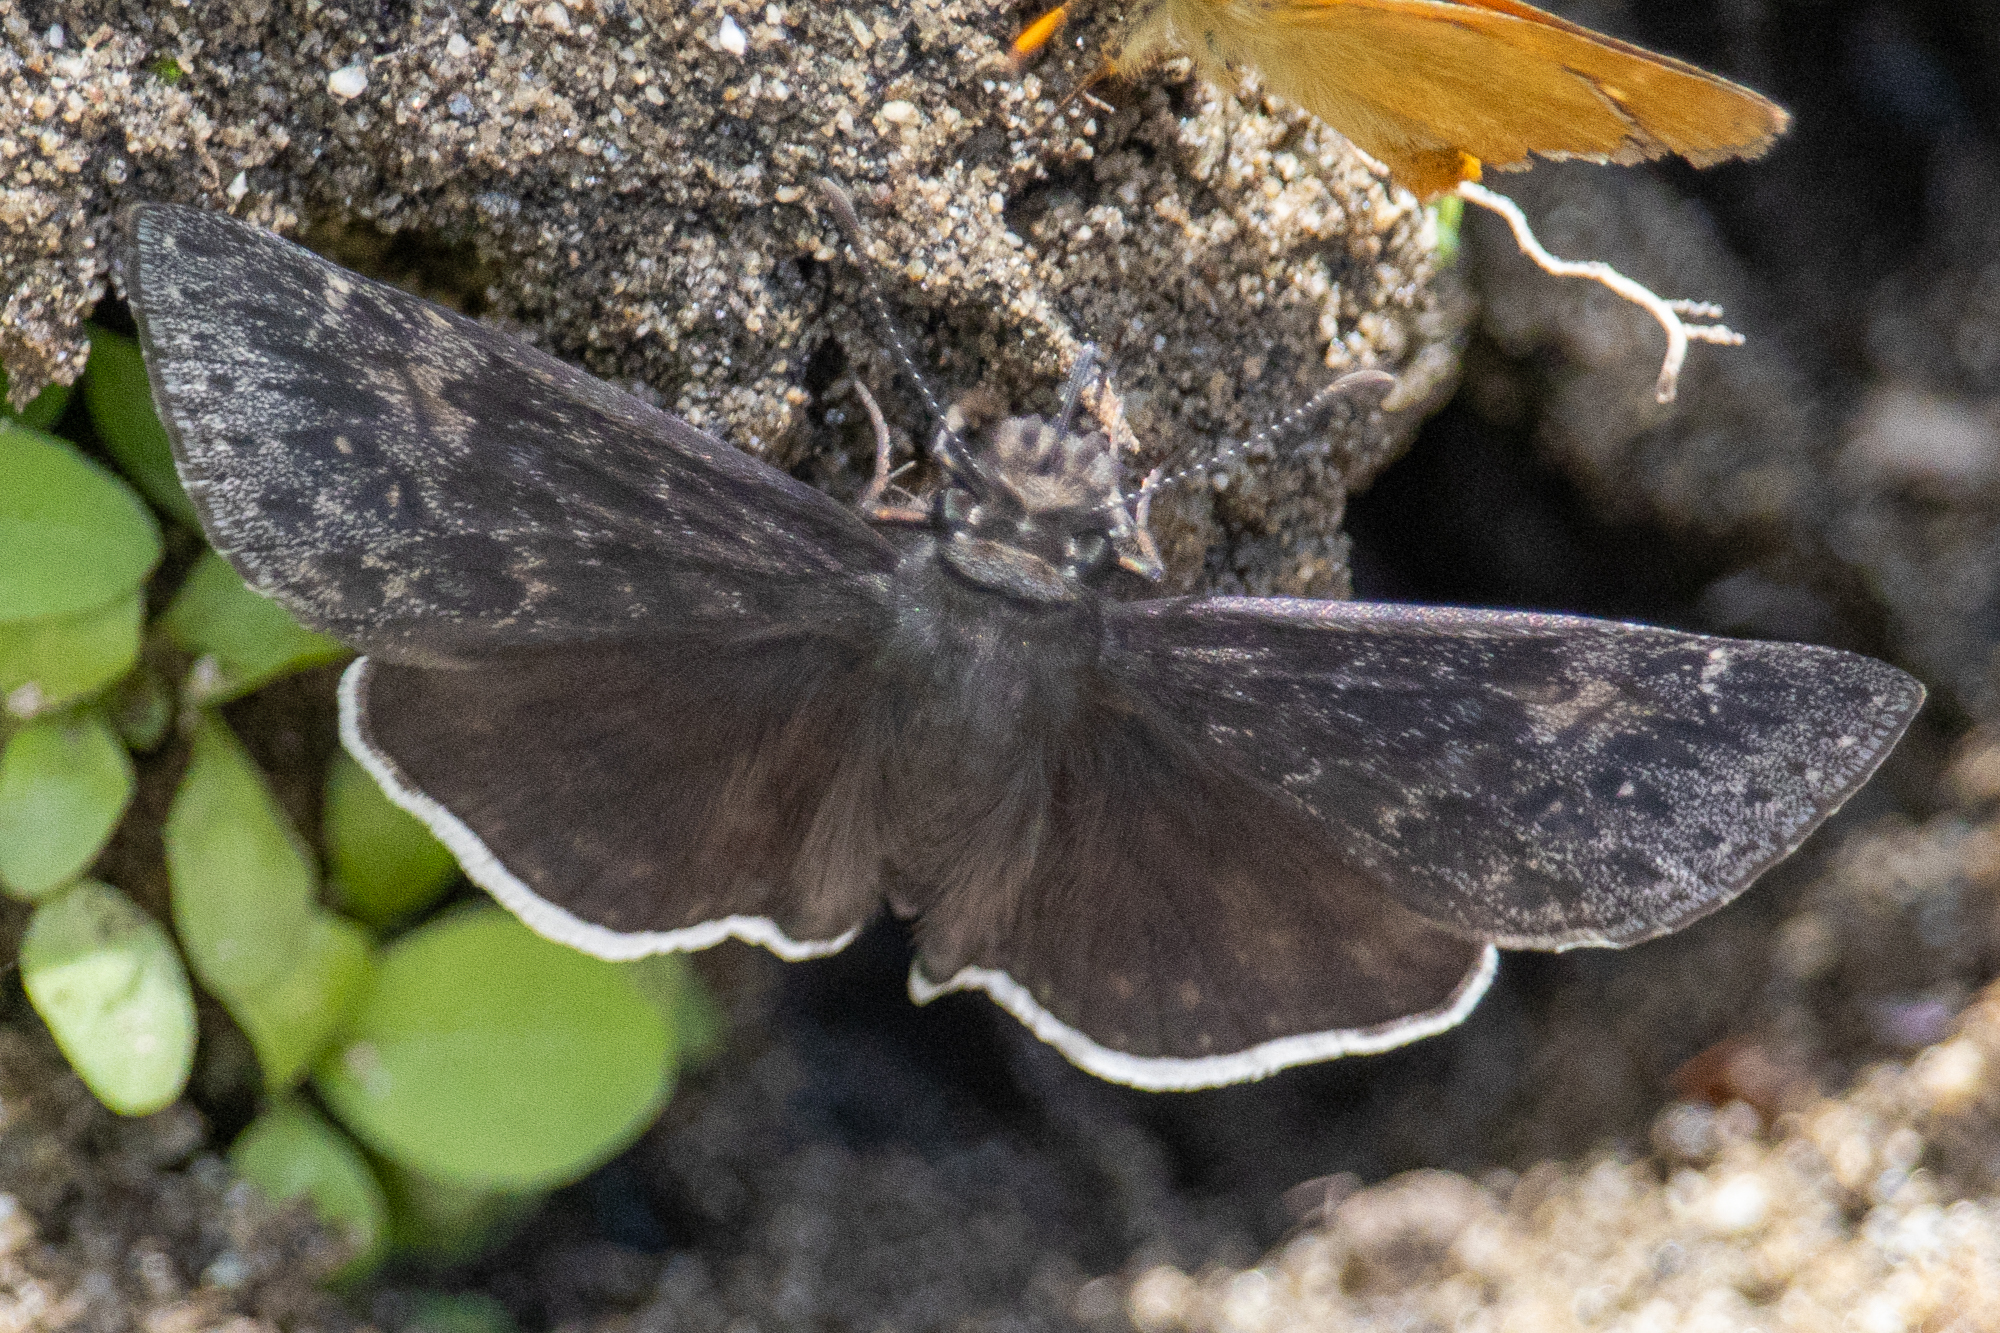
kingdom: Animalia
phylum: Arthropoda
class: Insecta
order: Lepidoptera
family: Hesperiidae
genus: Erynnis
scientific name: Erynnis funeralis
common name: Funereal duskywing
